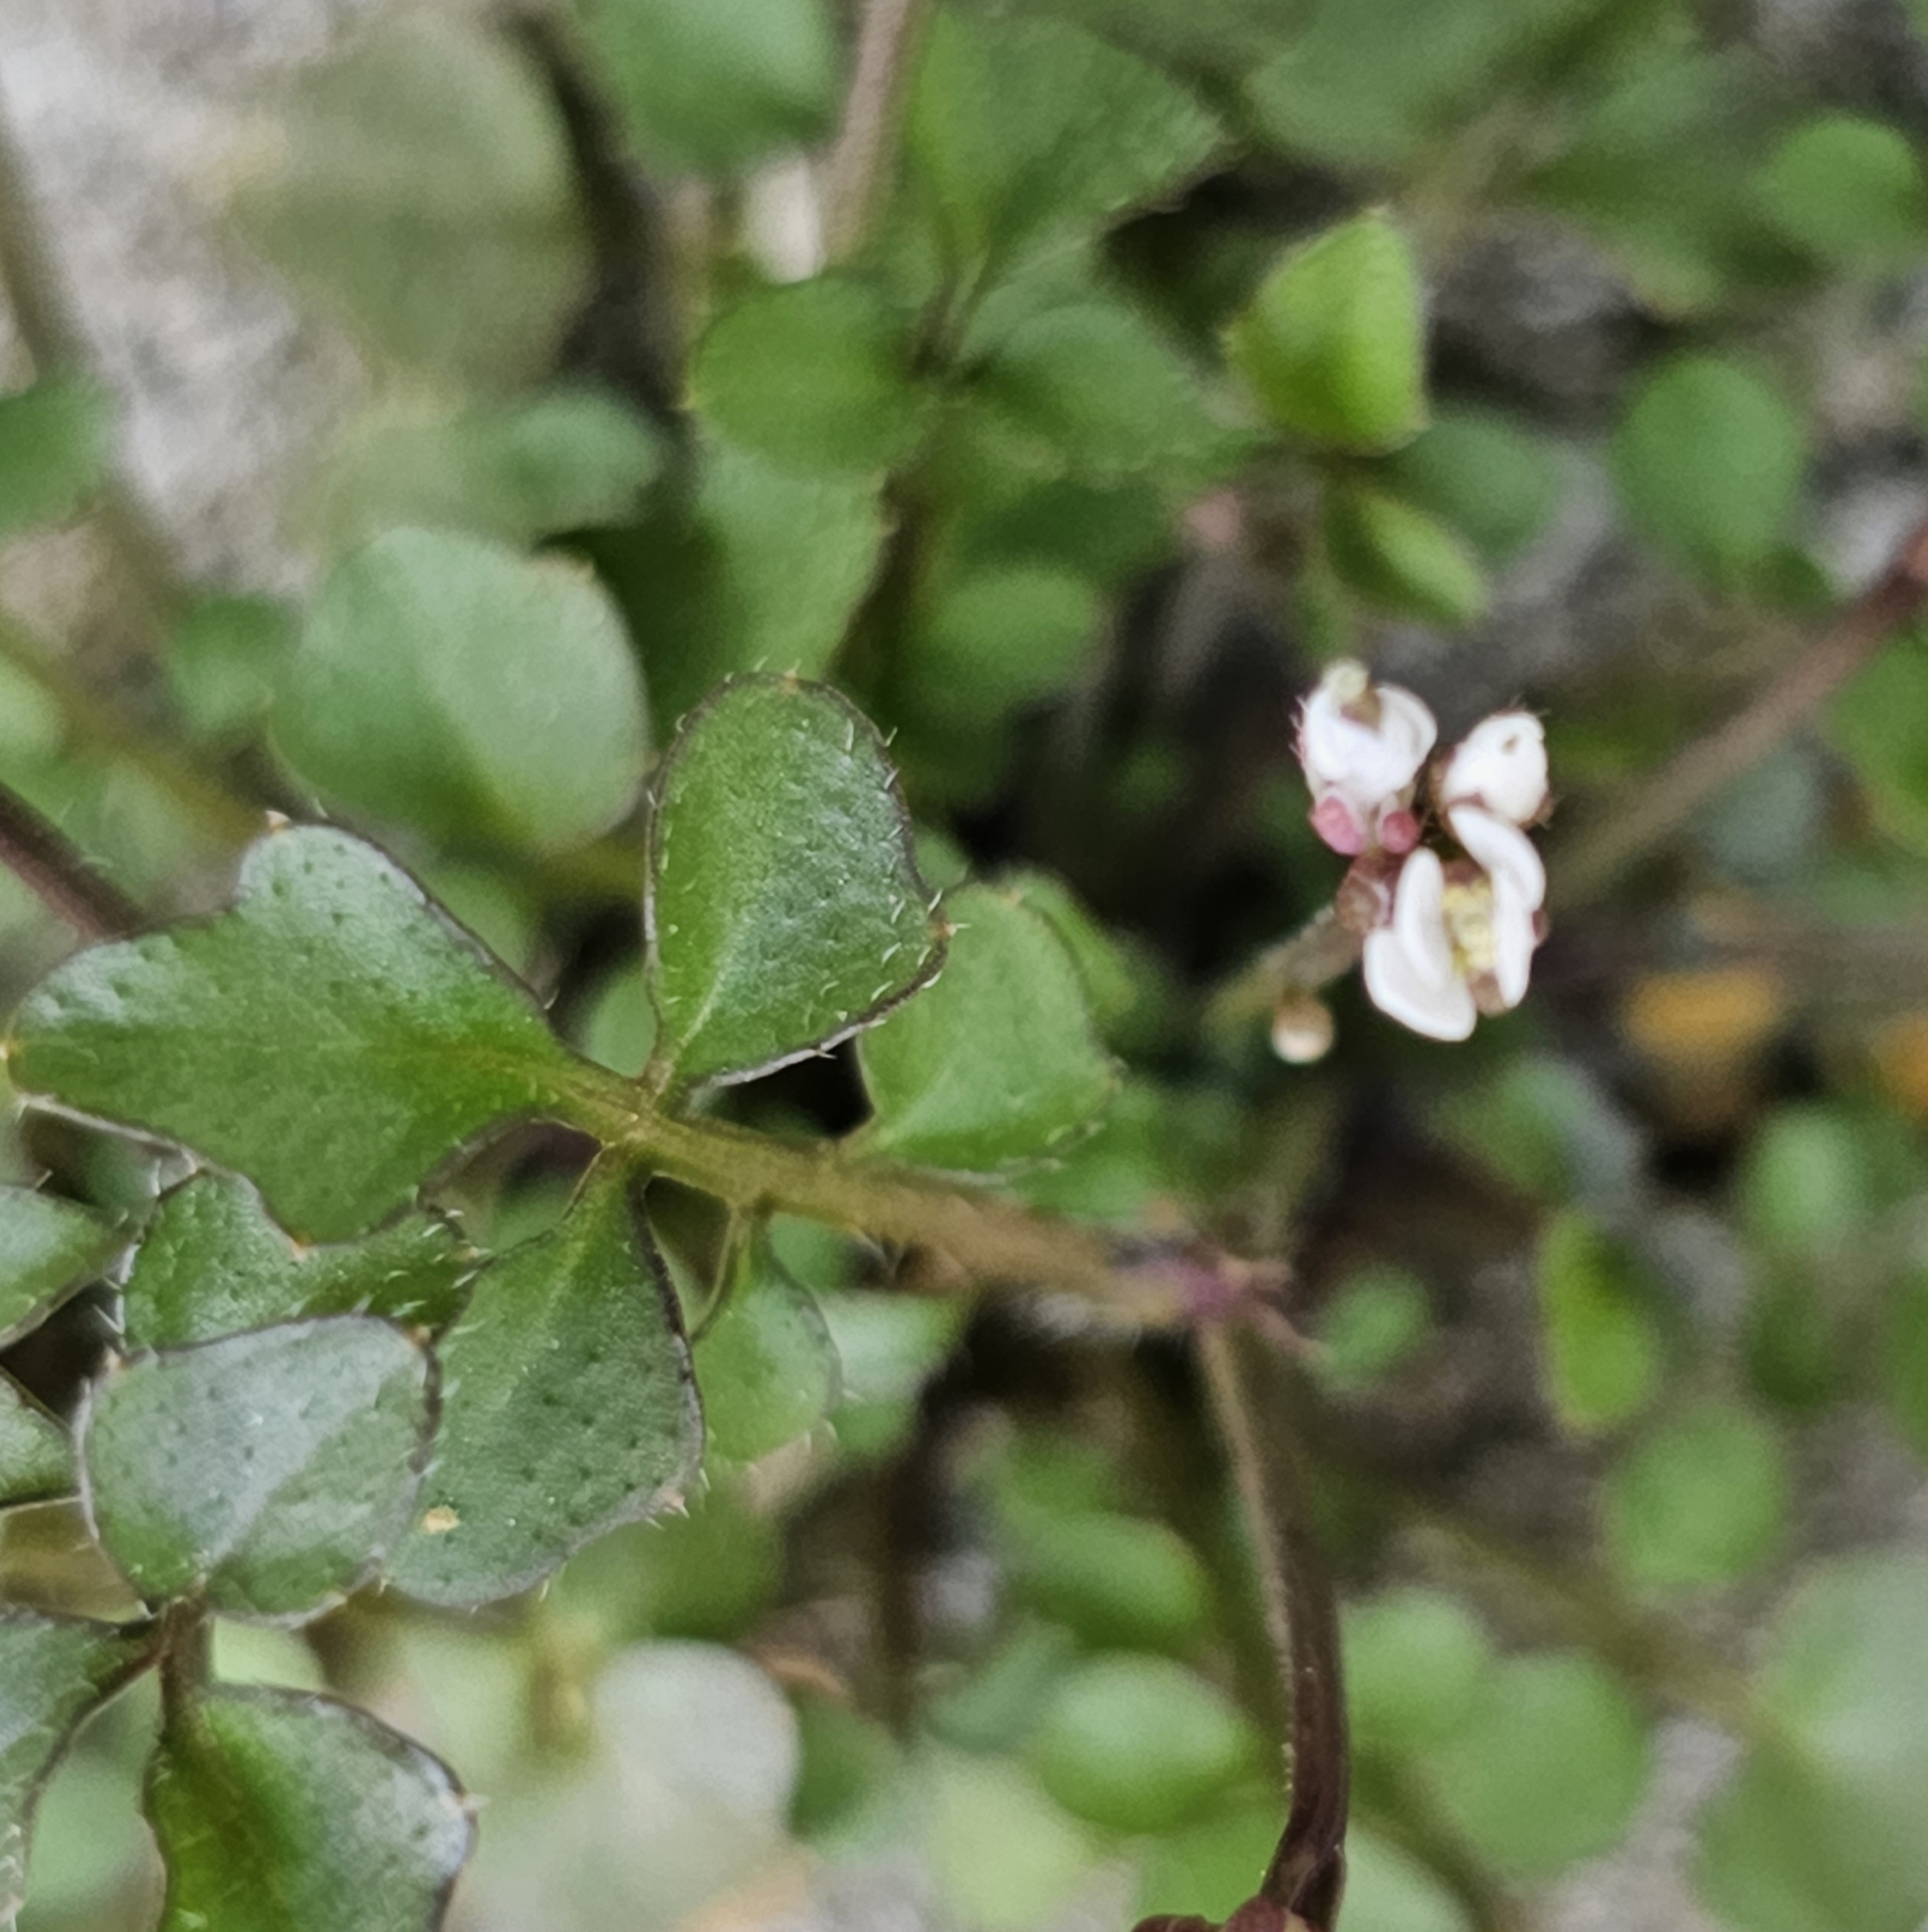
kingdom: Plantae
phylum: Tracheophyta
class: Magnoliopsida
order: Brassicales
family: Brassicaceae
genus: Cardamine
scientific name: Cardamine hirsuta
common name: Hairy bittercress
